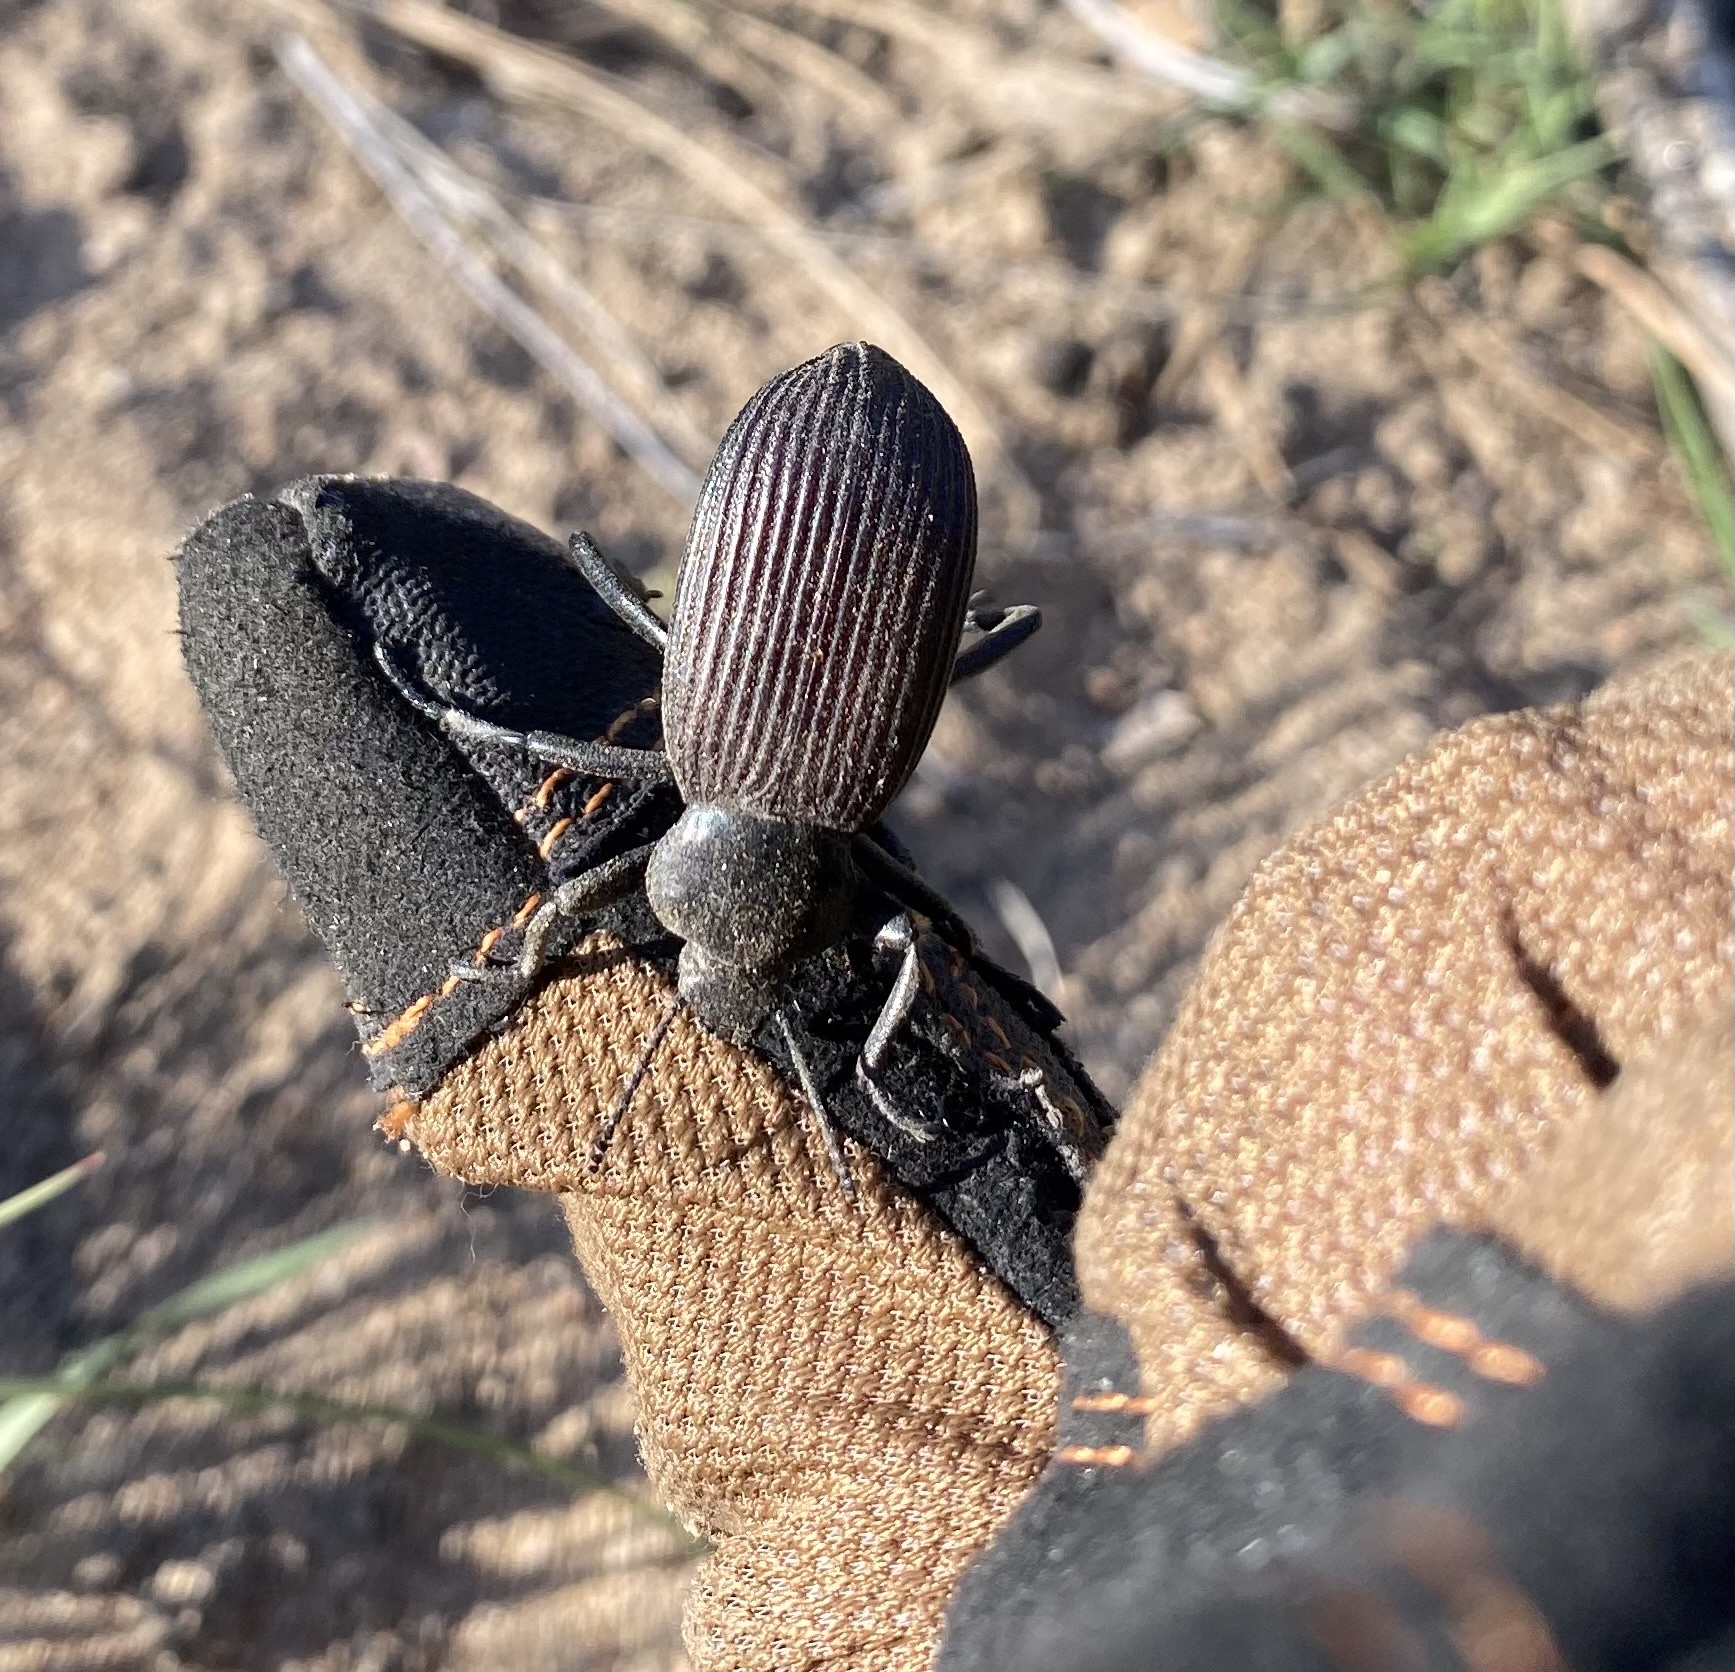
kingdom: Animalia
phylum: Arthropoda
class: Insecta
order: Coleoptera
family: Tenebrionidae
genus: Eleodes
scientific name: Eleodes obscura
